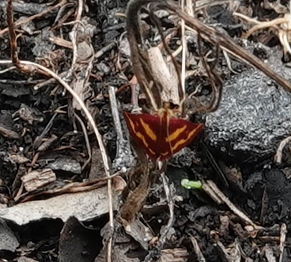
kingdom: Animalia
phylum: Arthropoda
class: Insecta
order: Lepidoptera
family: Crambidae
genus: Pyrausta
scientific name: Pyrausta tyralis
